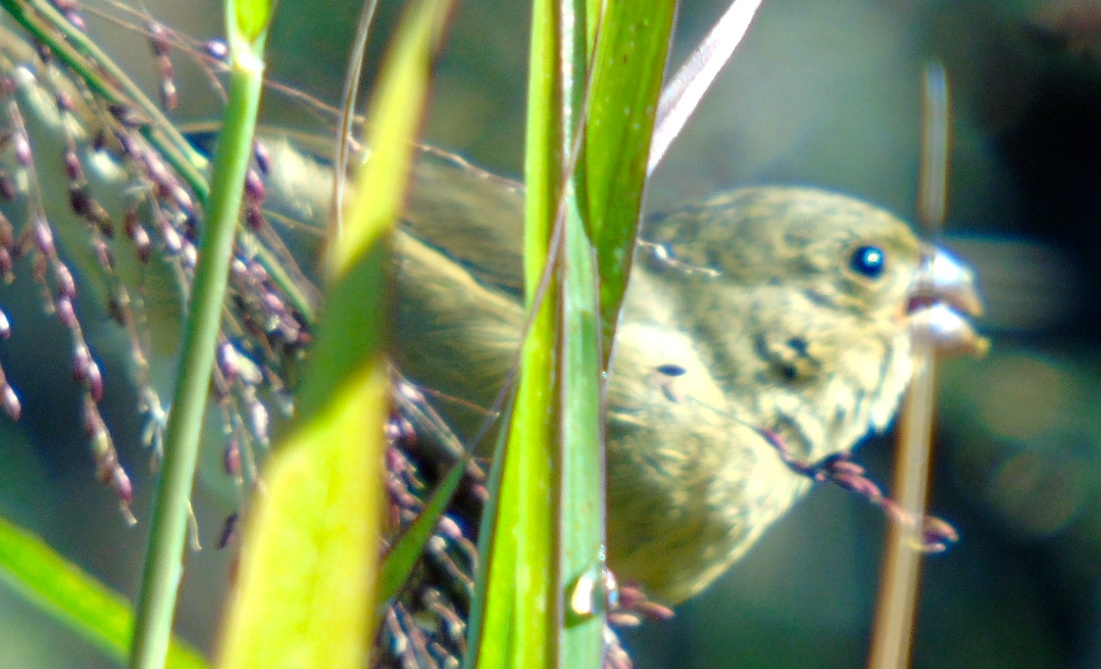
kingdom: Animalia
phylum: Chordata
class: Aves
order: Passeriformes
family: Thraupidae
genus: Sporophila
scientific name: Sporophila torqueola
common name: White-collared seedeater
